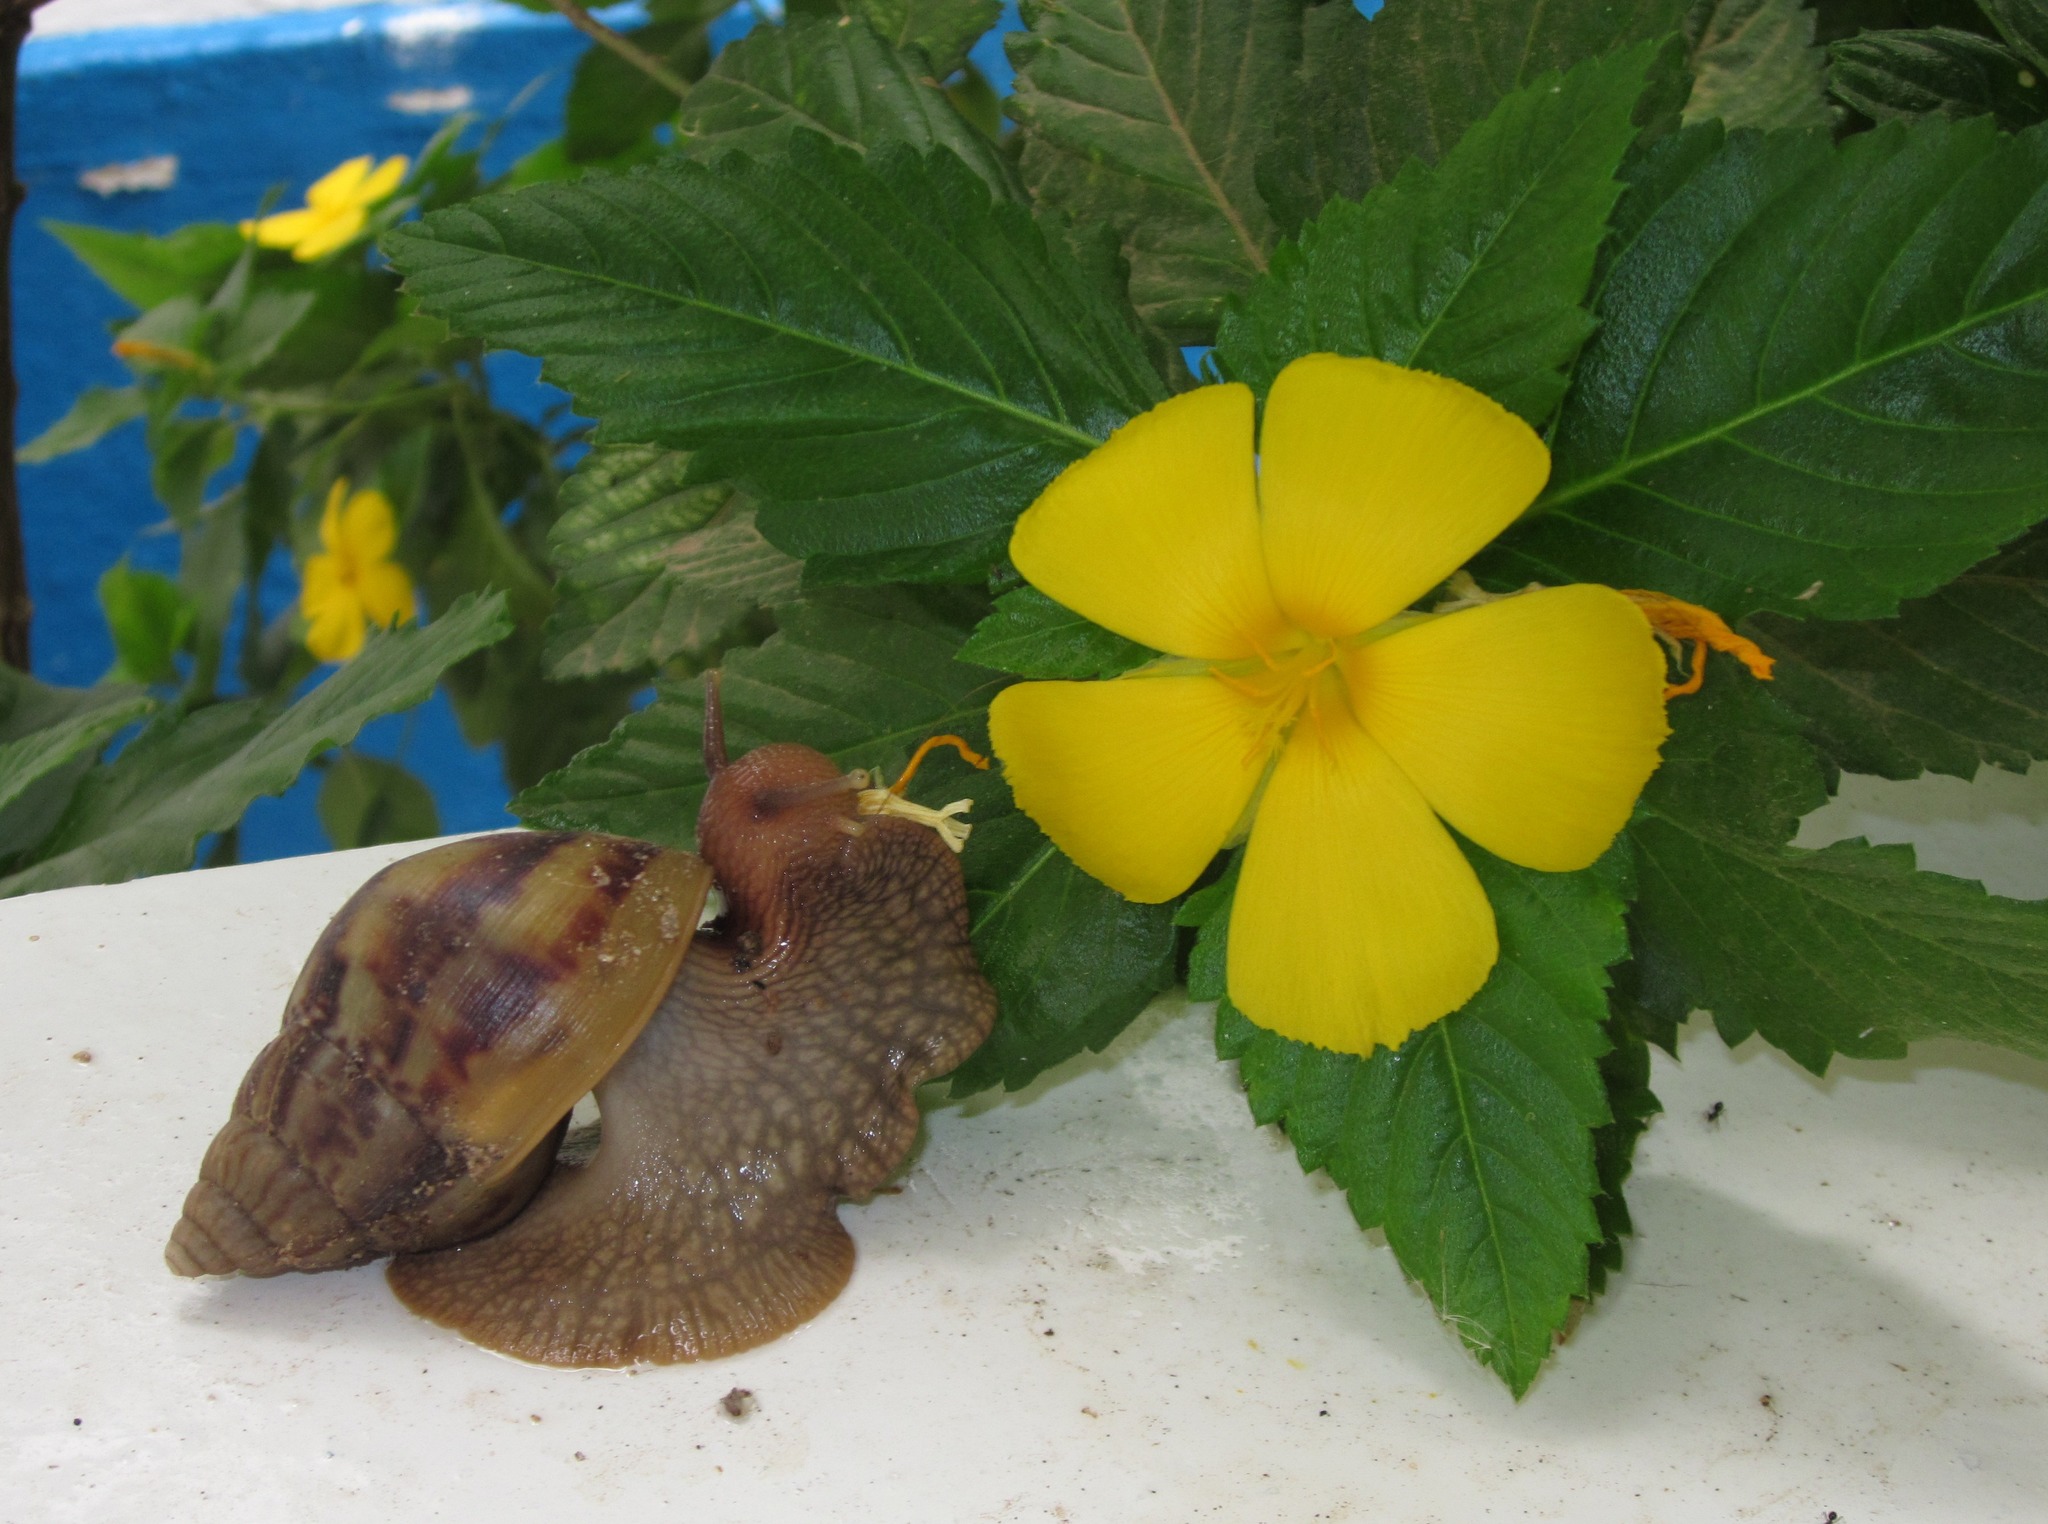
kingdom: Animalia
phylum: Mollusca
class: Gastropoda
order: Stylommatophora
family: Achatinidae
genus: Lissachatina
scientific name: Lissachatina fulica
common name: Giant african snail
